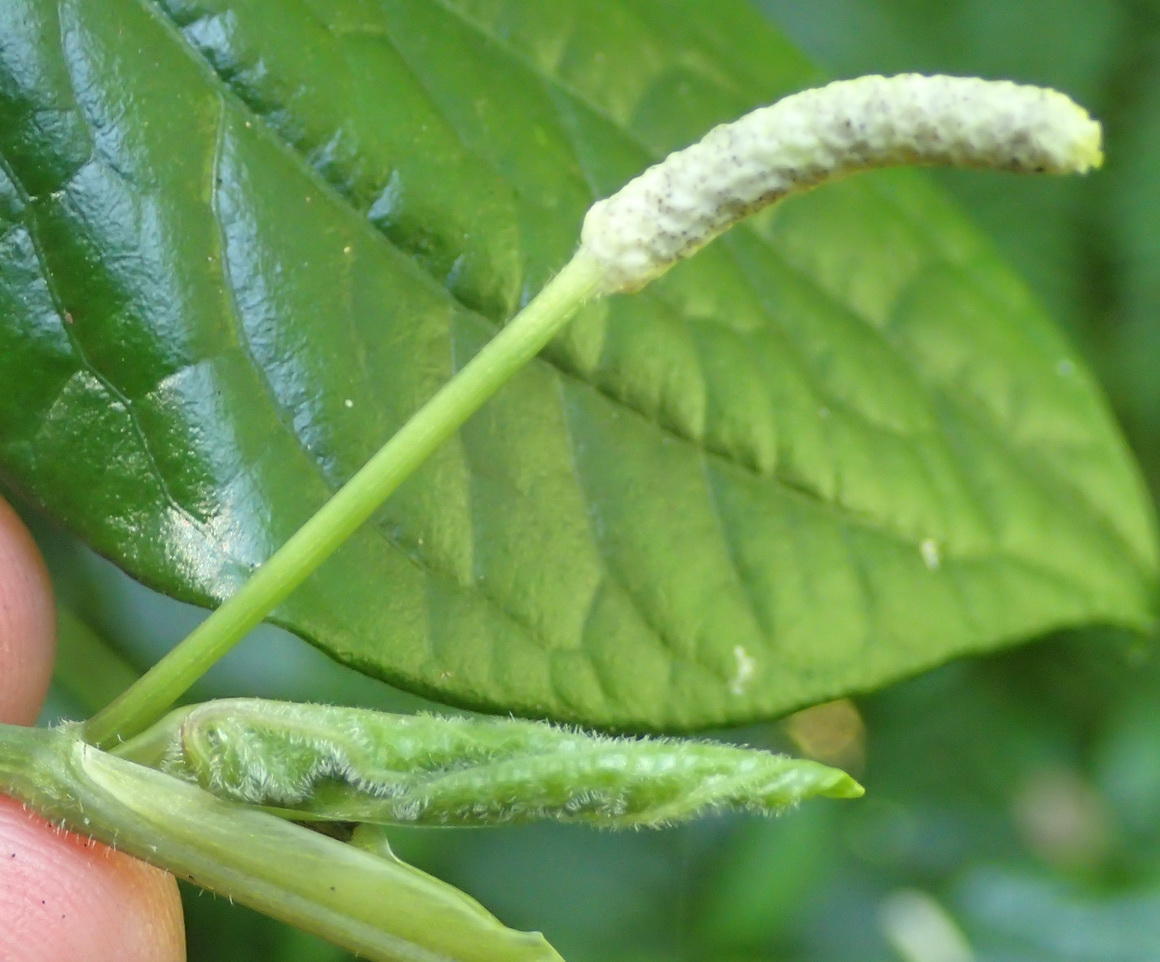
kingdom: Plantae
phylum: Tracheophyta
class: Magnoliopsida
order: Piperales
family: Piperaceae
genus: Piper
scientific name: Piper capense
